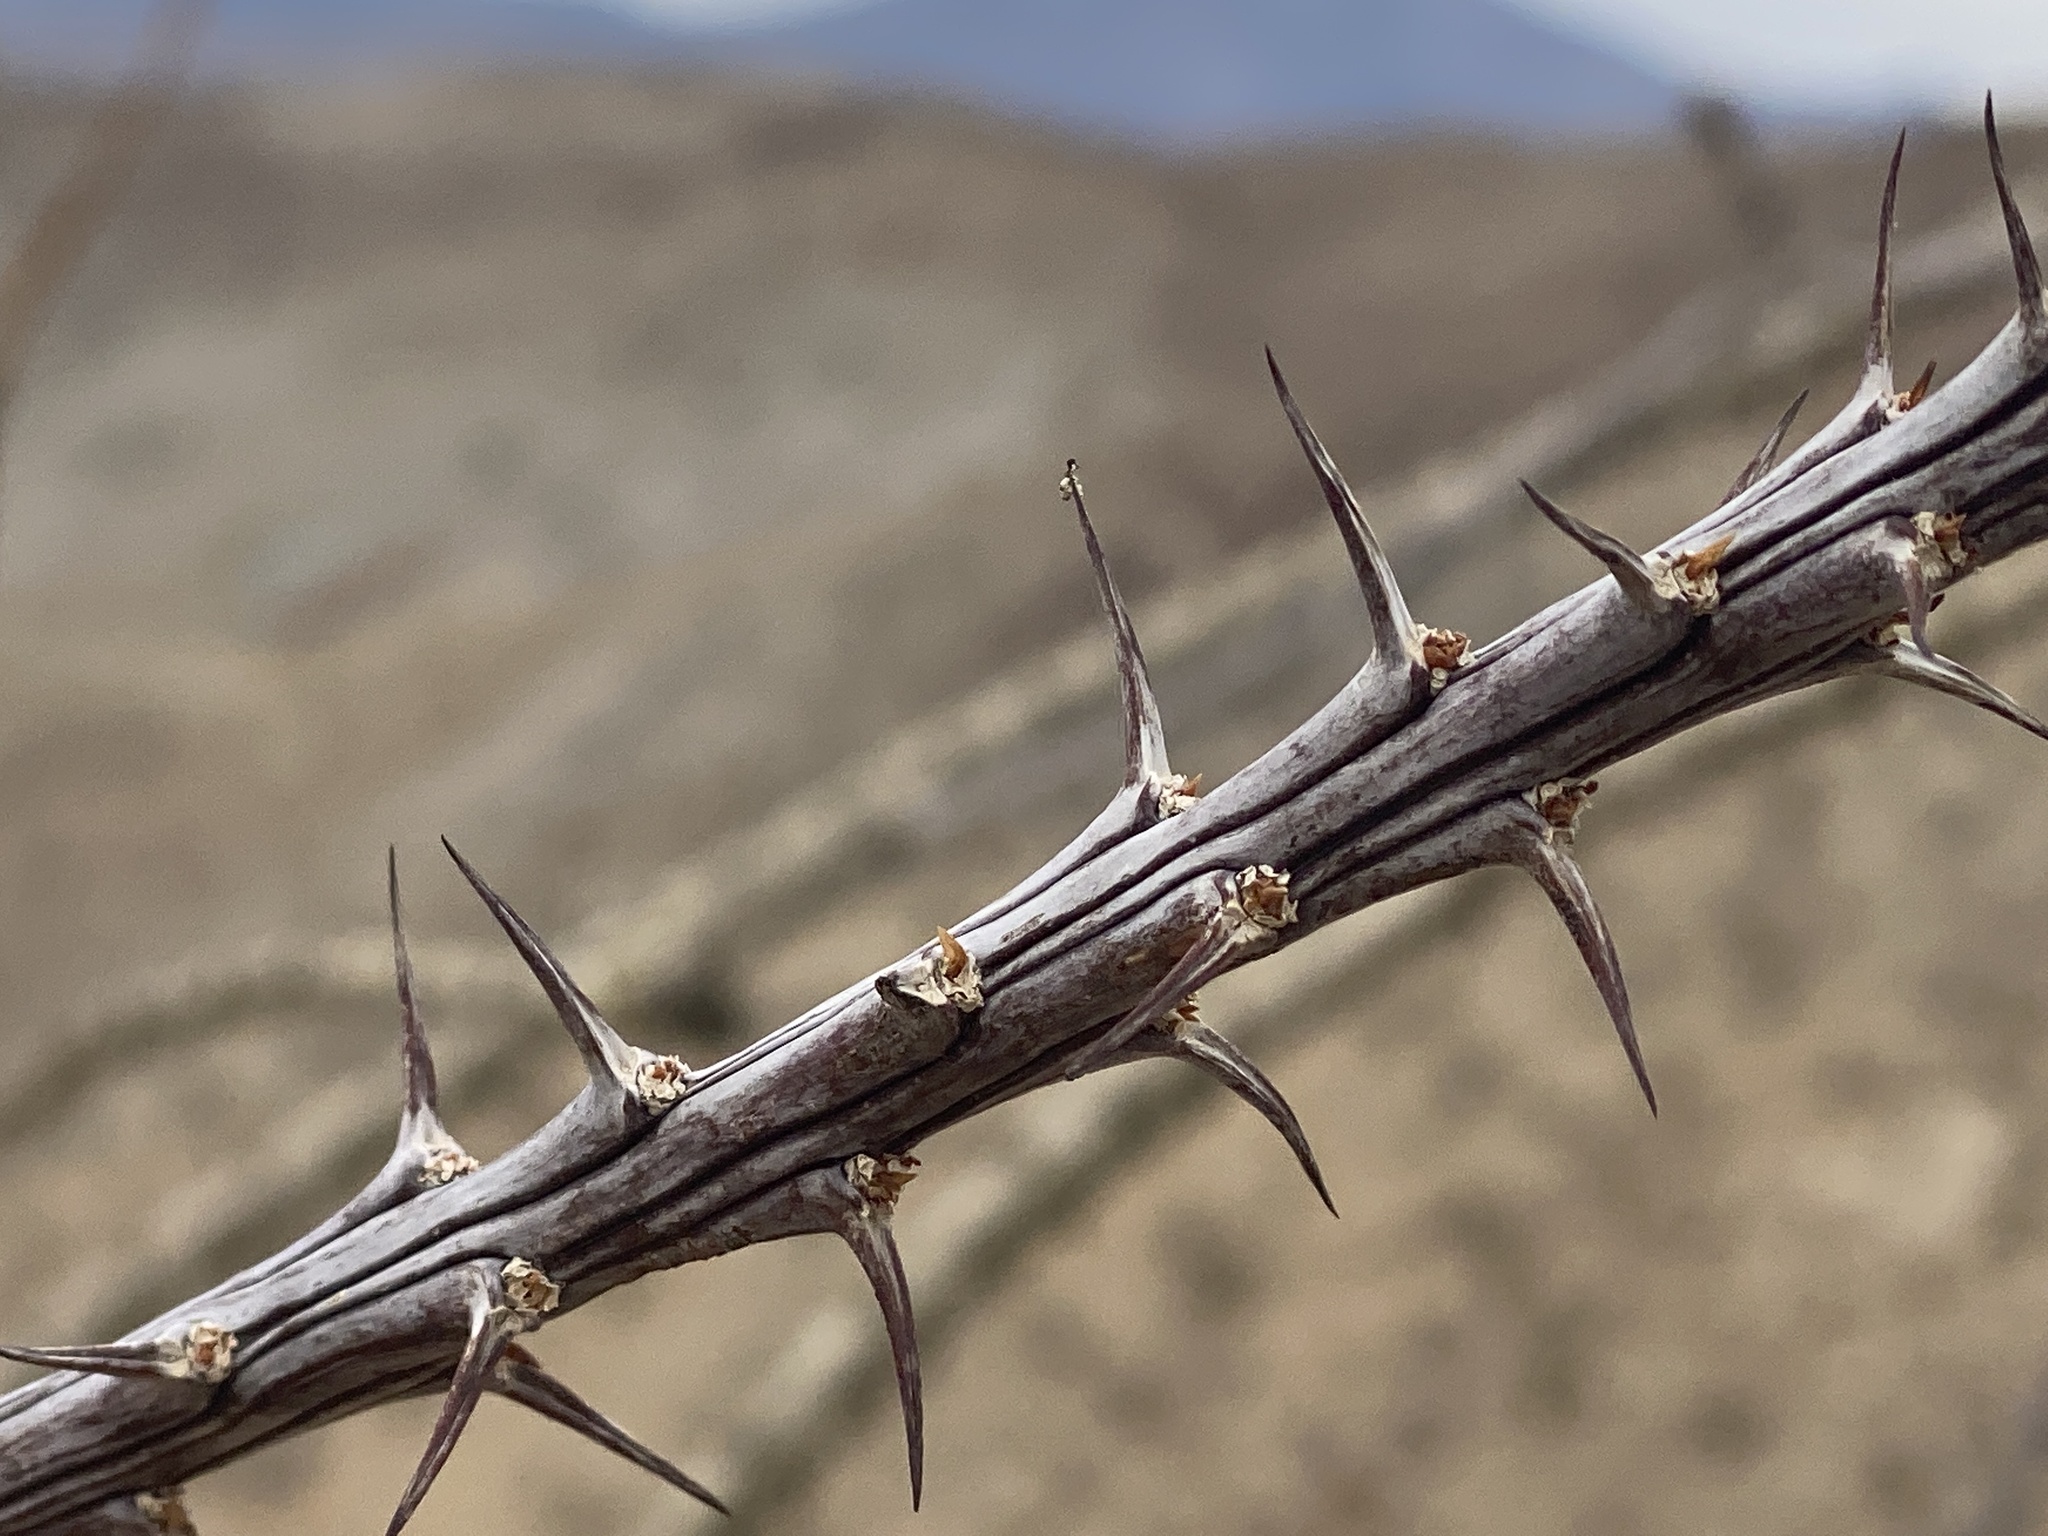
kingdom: Plantae
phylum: Tracheophyta
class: Magnoliopsida
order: Ericales
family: Fouquieriaceae
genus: Fouquieria
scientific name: Fouquieria splendens
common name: Vine-cactus
